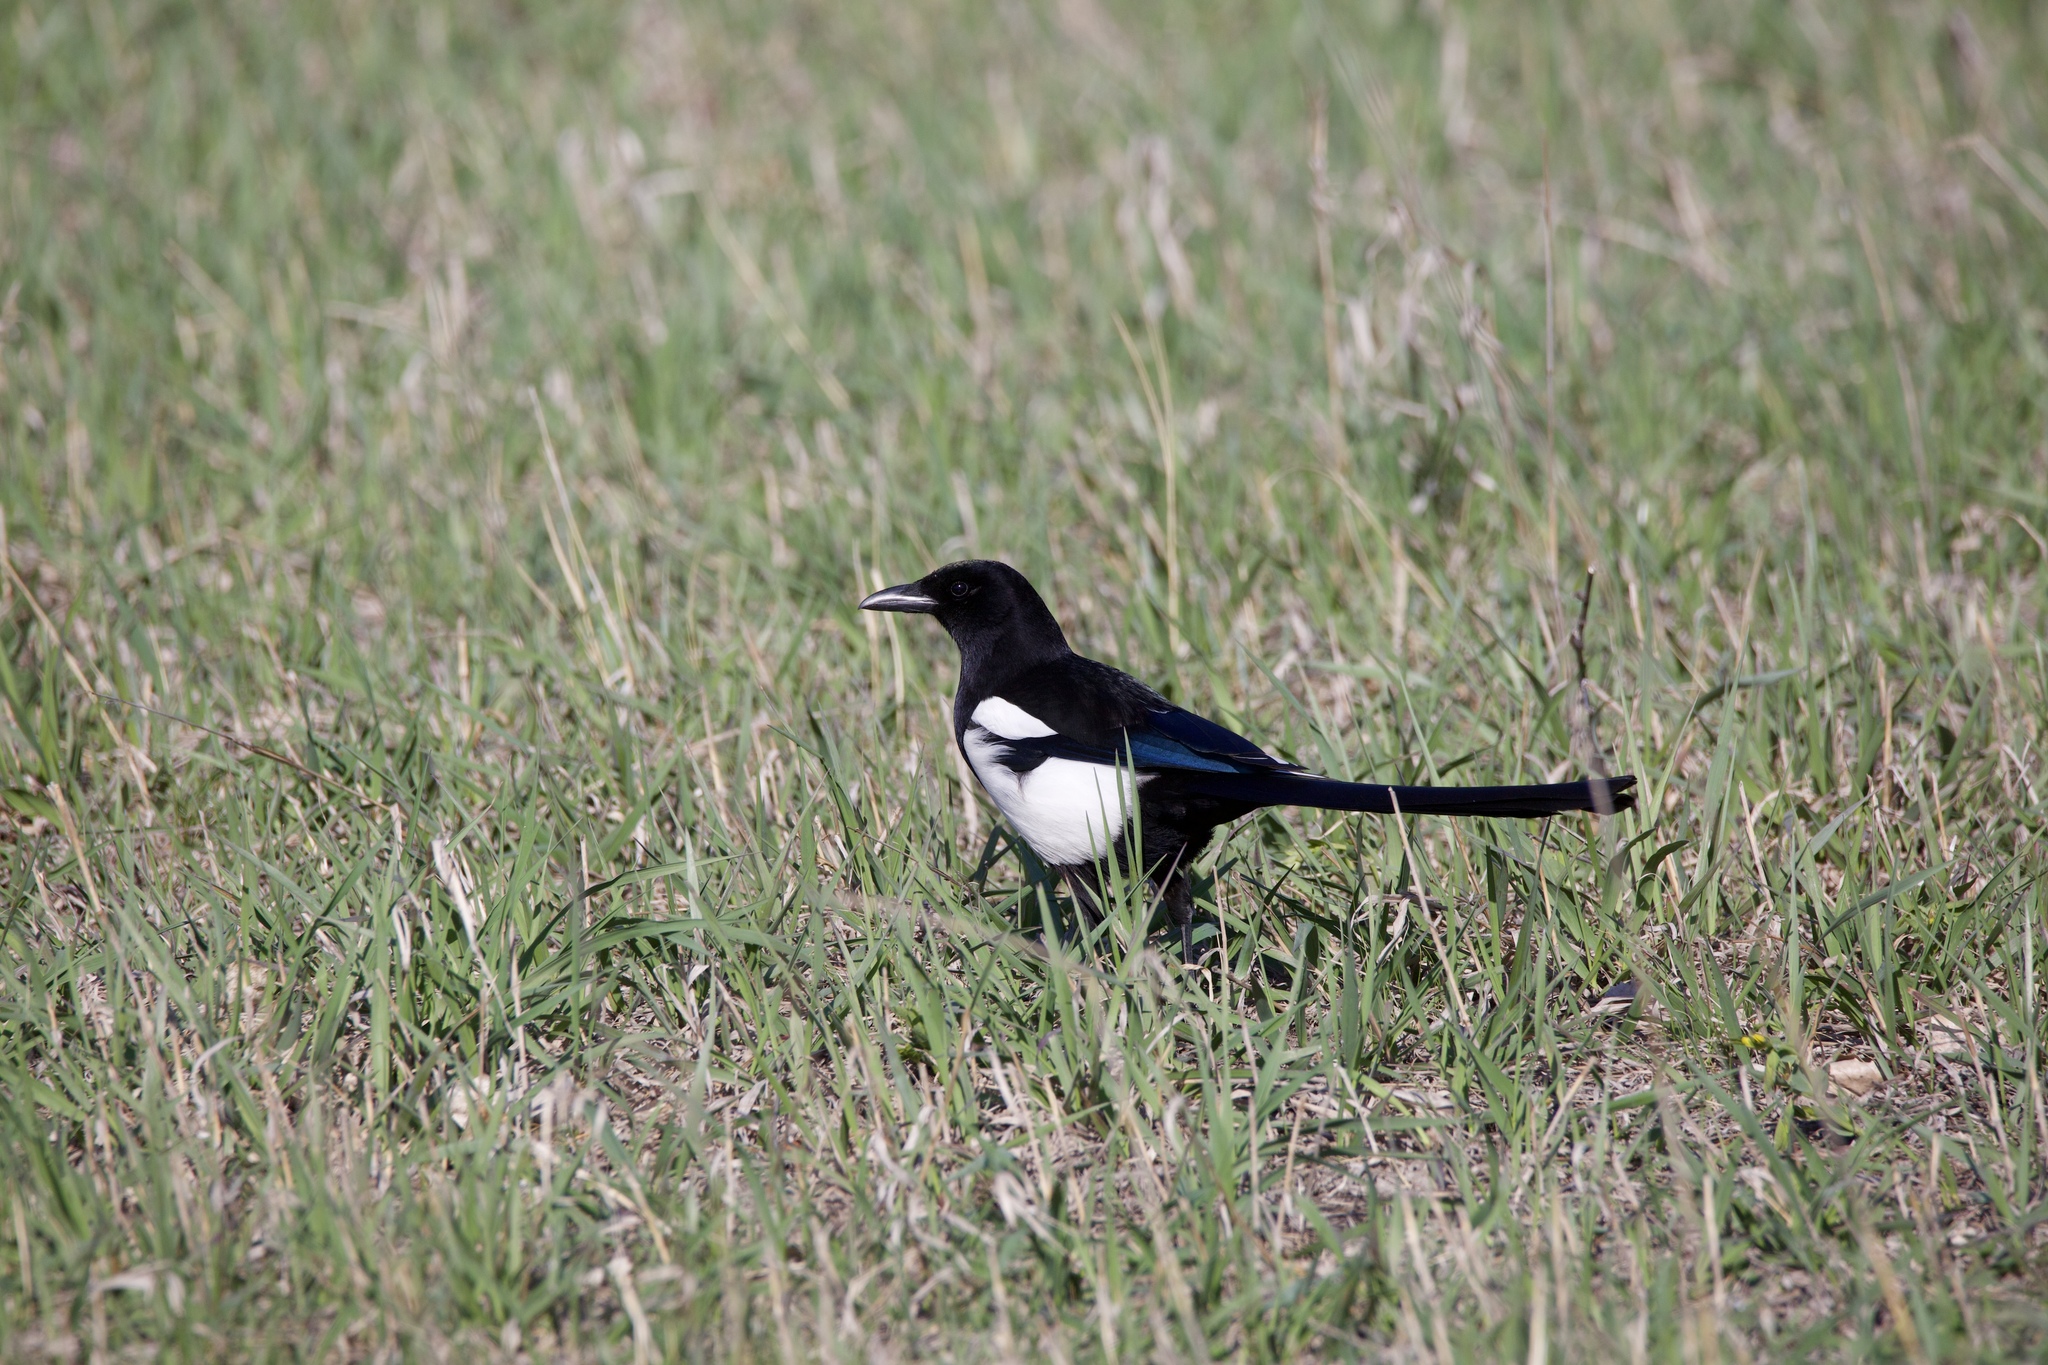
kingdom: Animalia
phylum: Chordata
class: Aves
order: Passeriformes
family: Corvidae
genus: Pica
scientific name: Pica hudsonia
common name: Black-billed magpie
